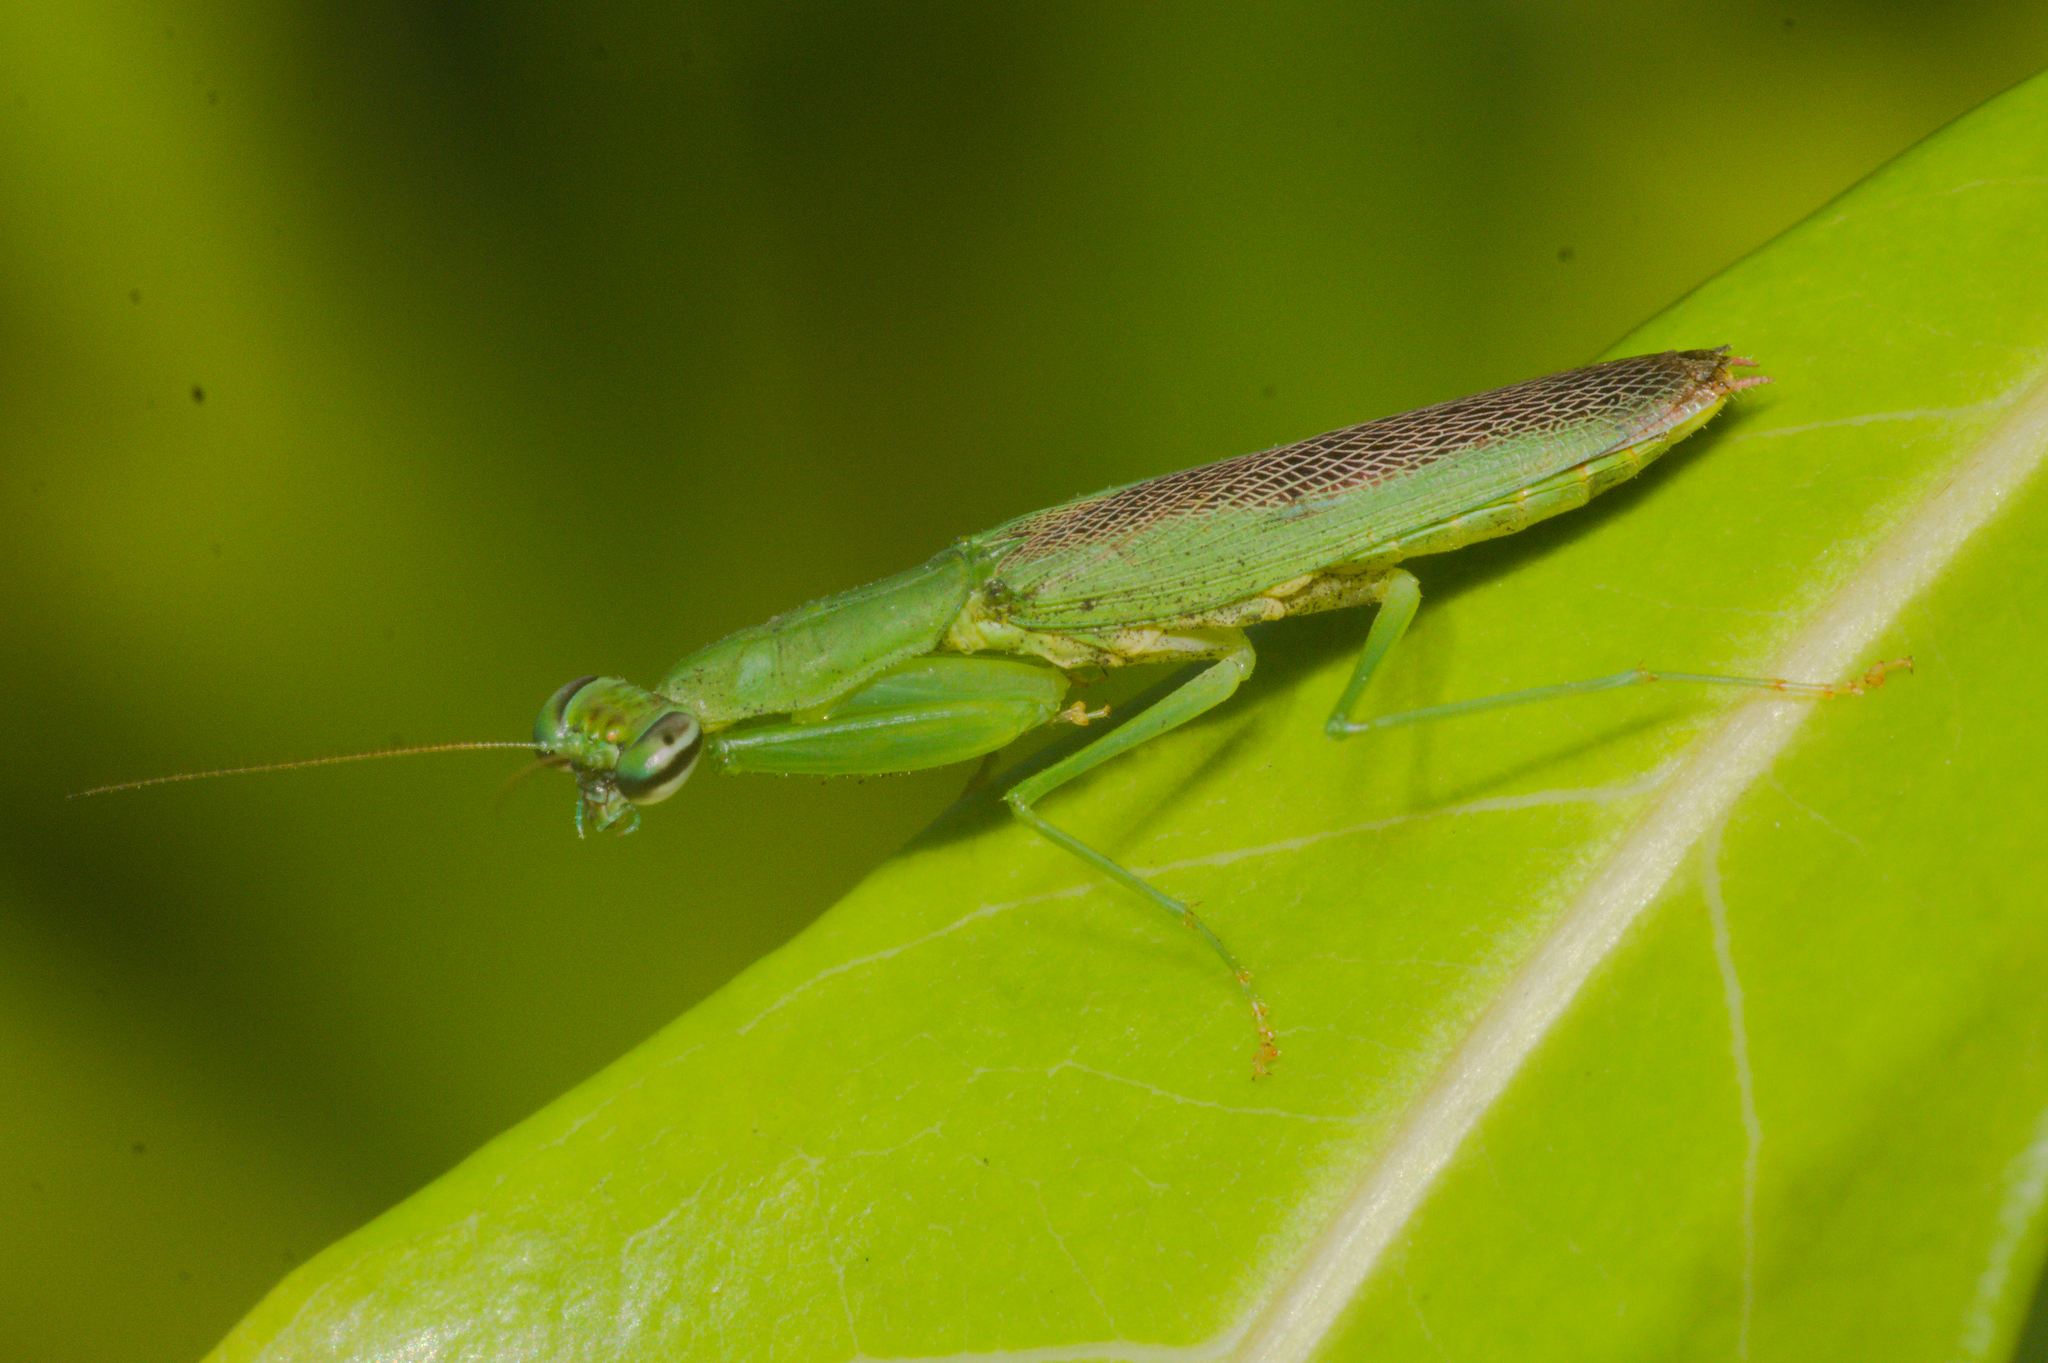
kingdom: Animalia
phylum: Arthropoda
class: Insecta
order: Mantodea
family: Hymenopodidae
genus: Odontomantis
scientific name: Odontomantis planiceps
